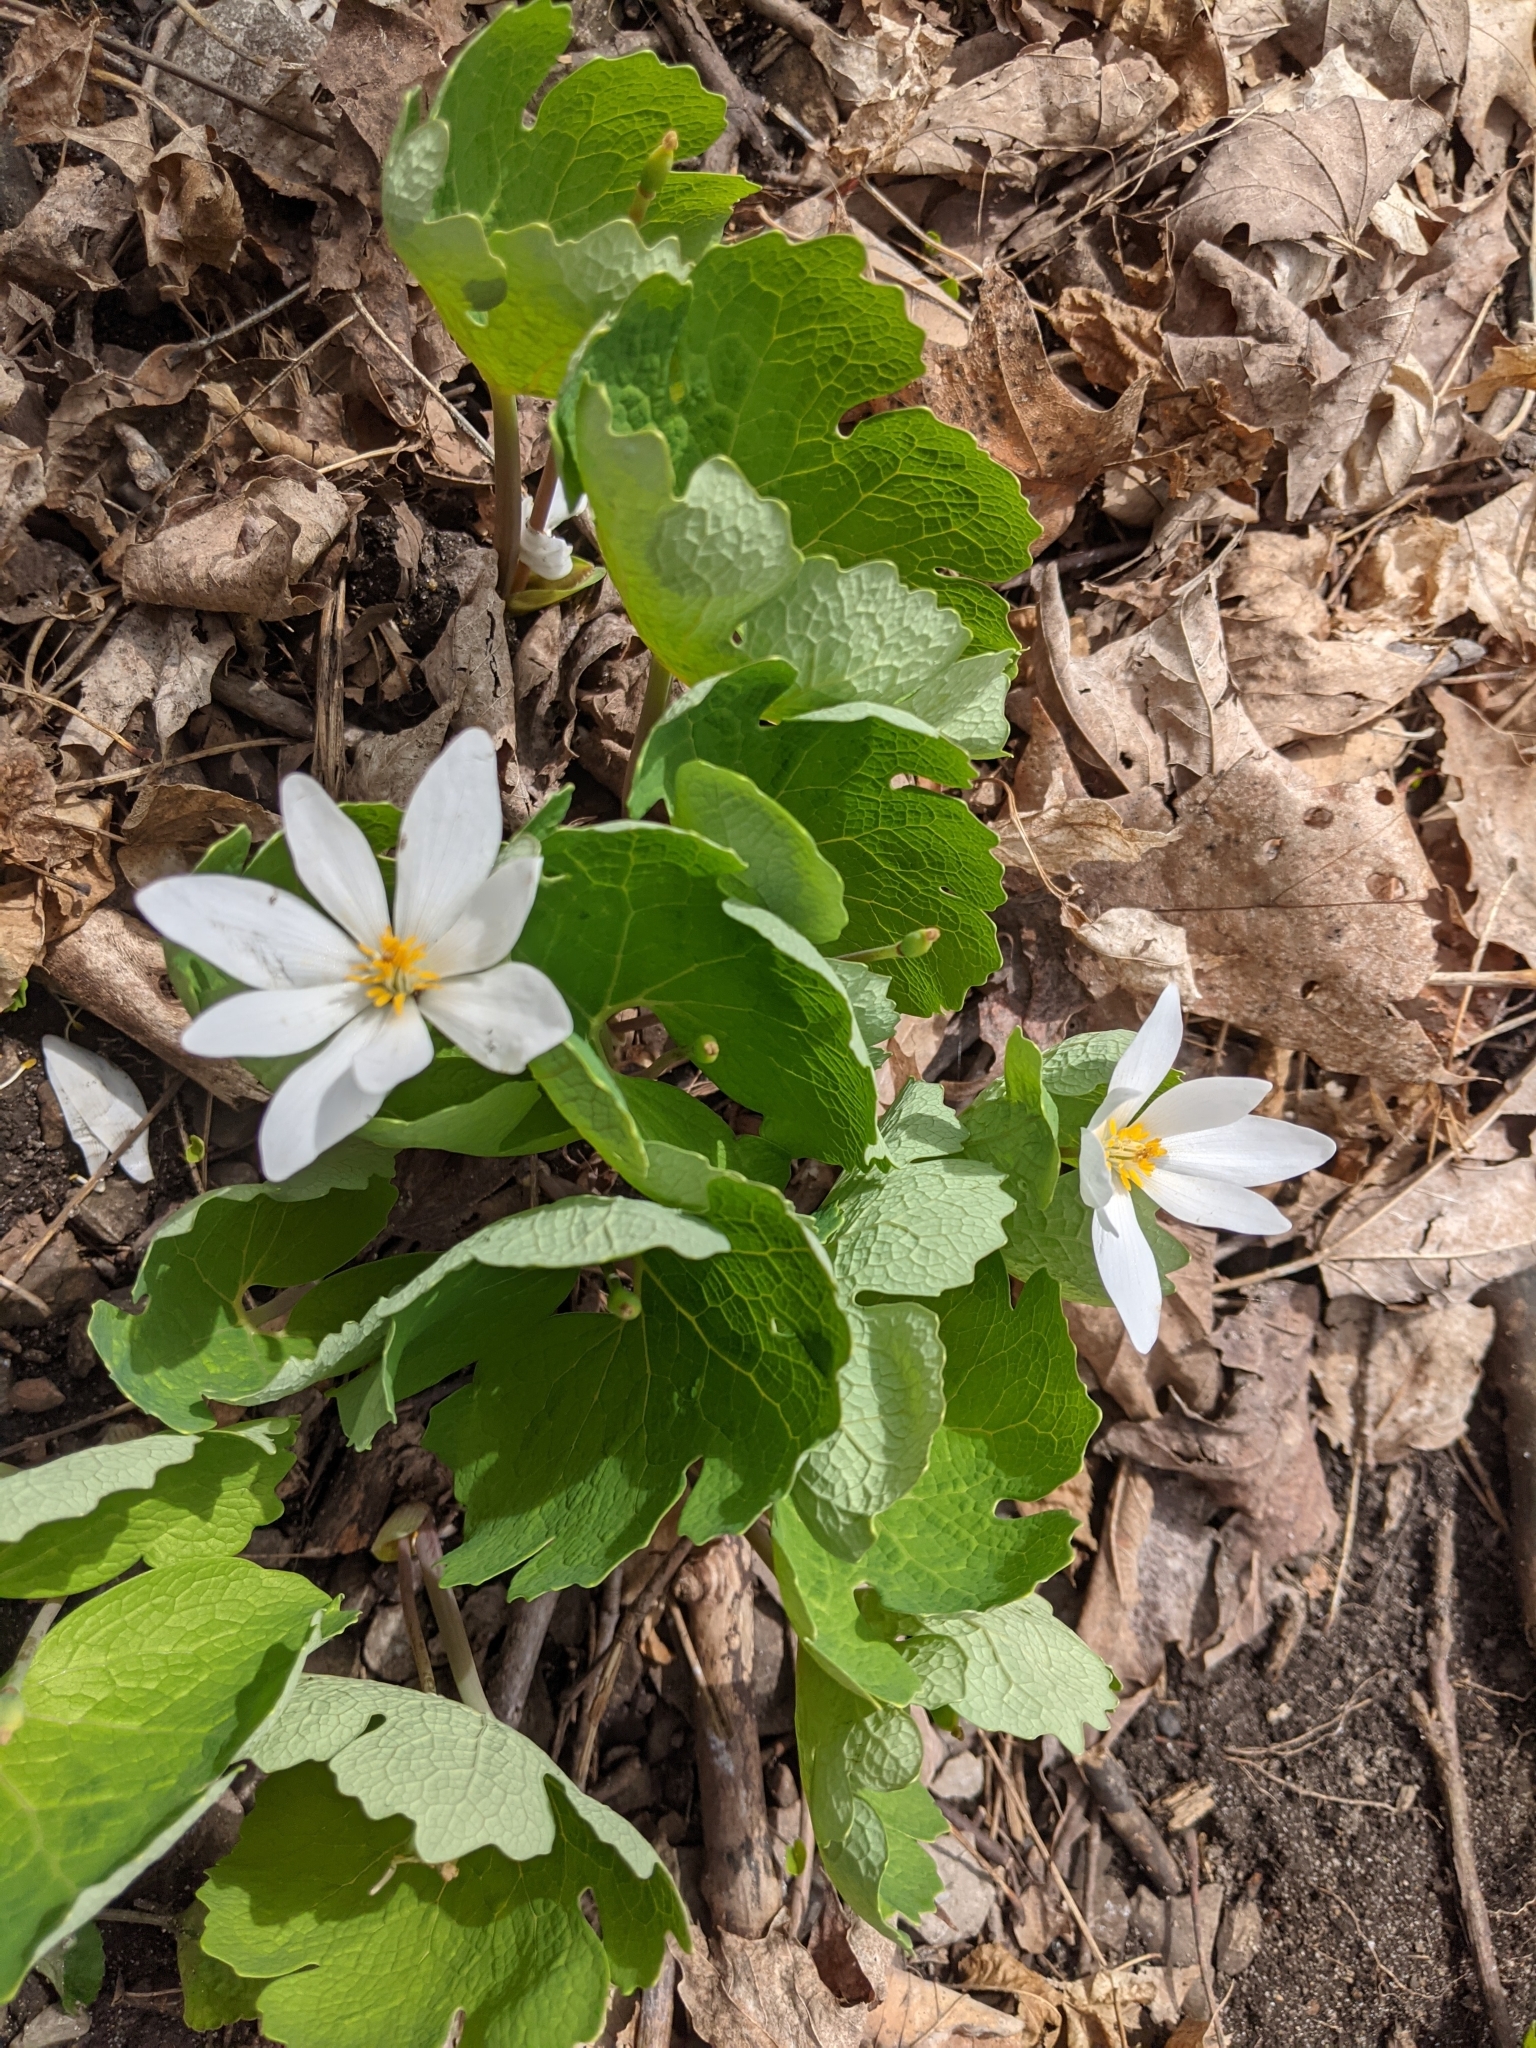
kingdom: Plantae
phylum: Tracheophyta
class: Magnoliopsida
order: Ranunculales
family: Papaveraceae
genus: Sanguinaria
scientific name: Sanguinaria canadensis
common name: Bloodroot
